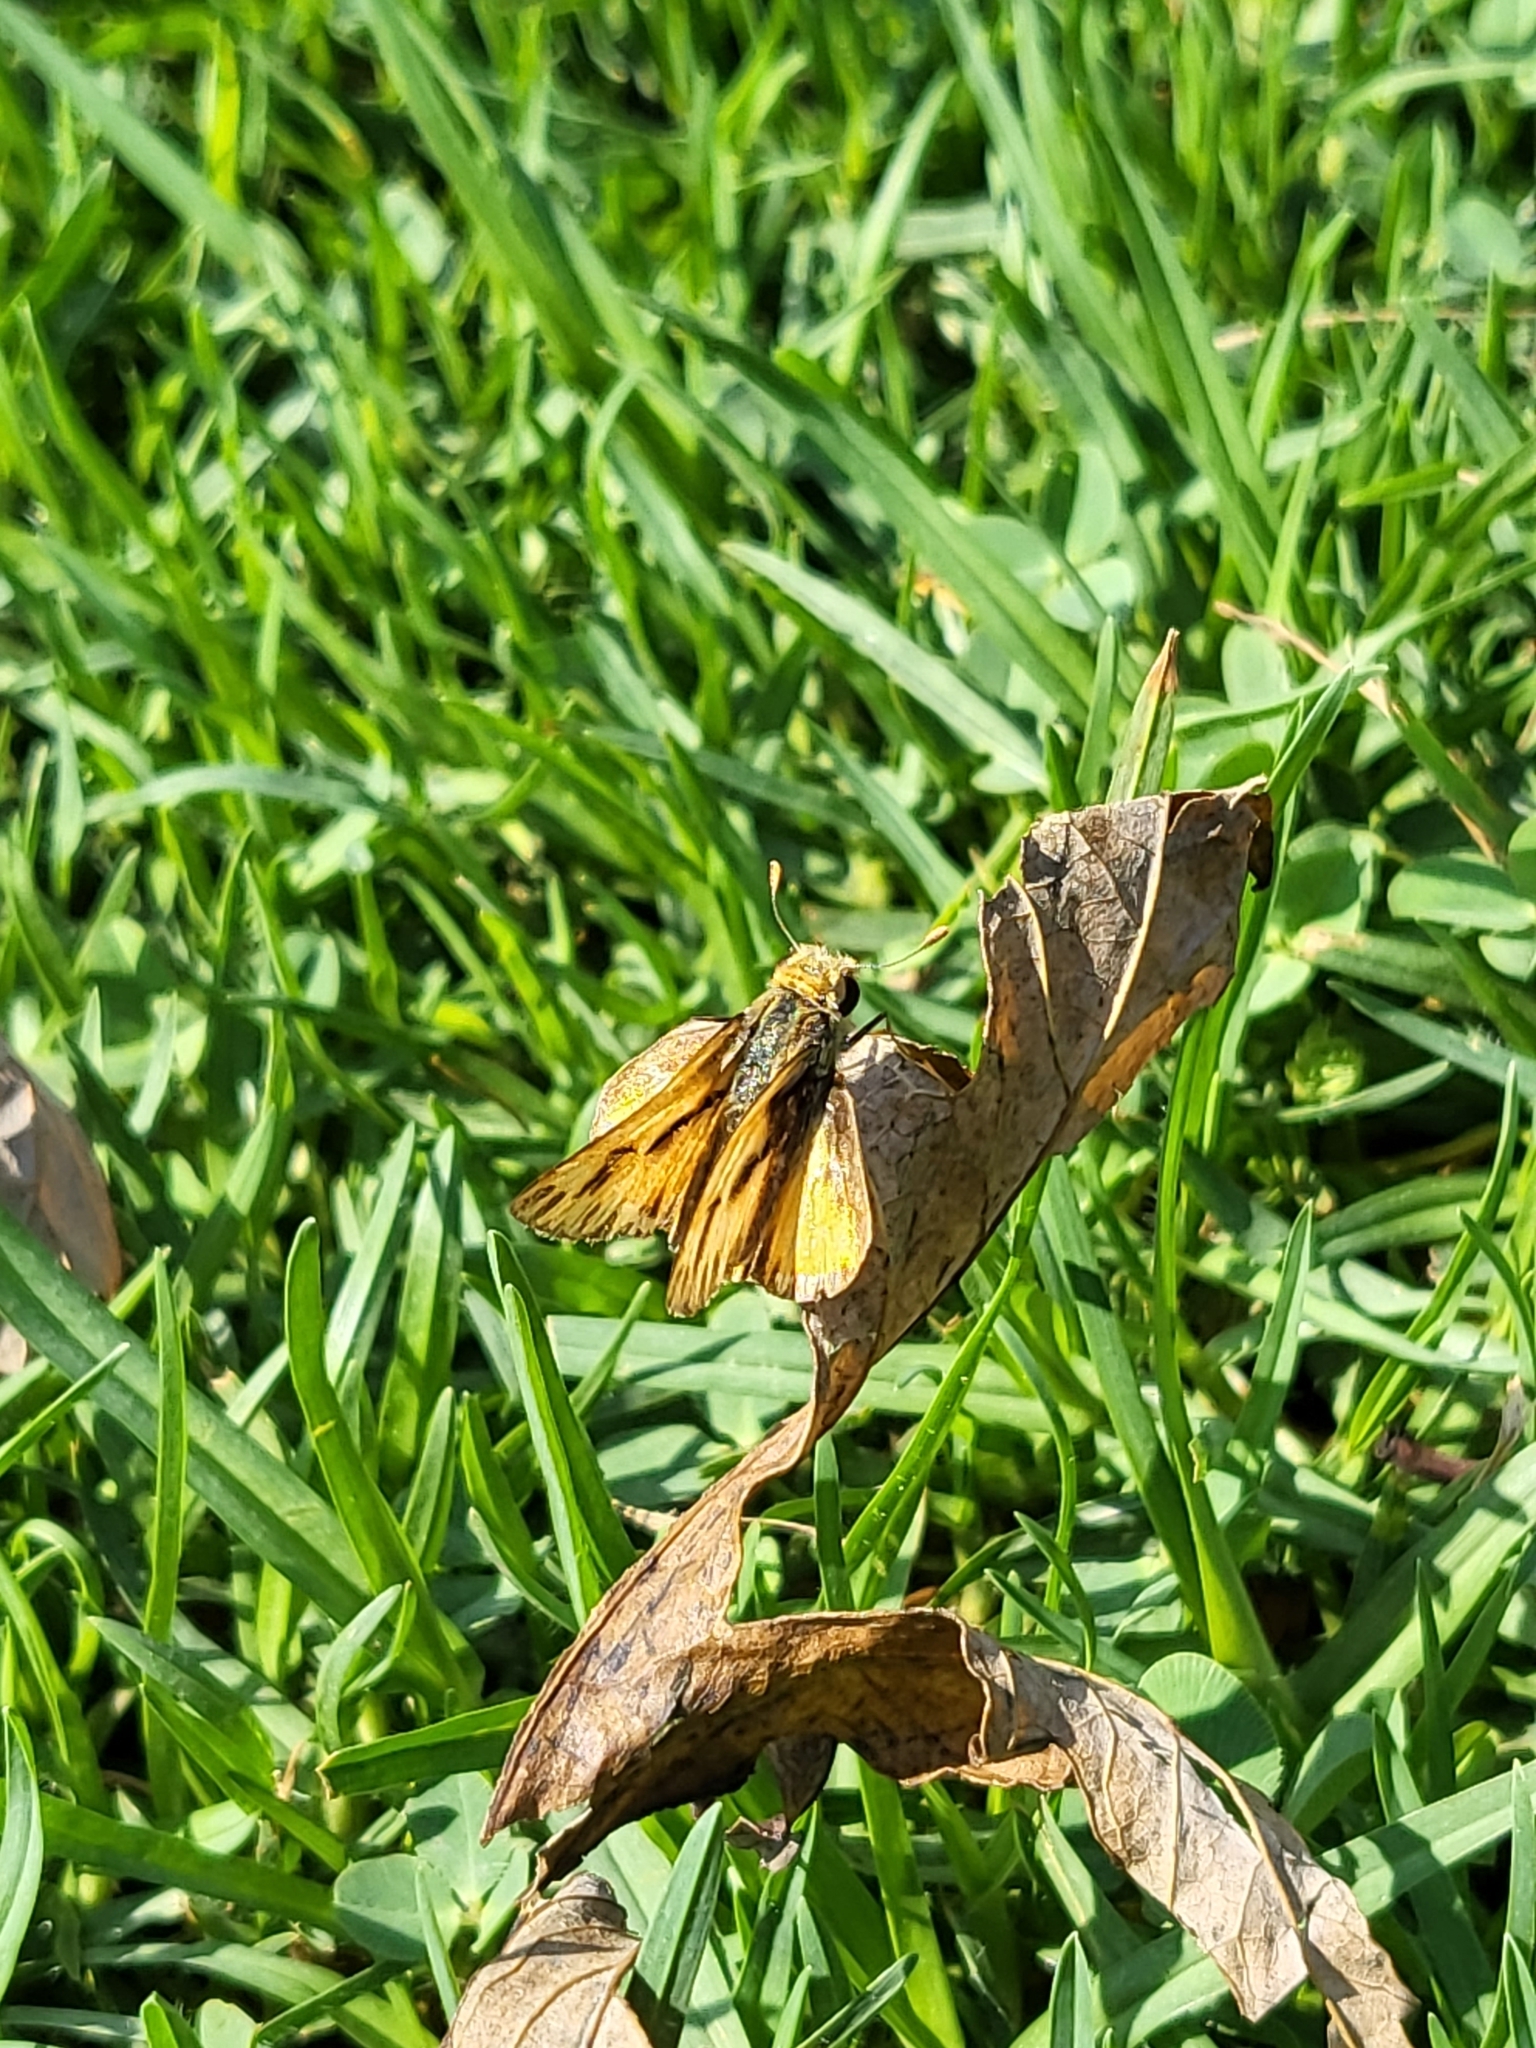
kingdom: Animalia
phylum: Arthropoda
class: Insecta
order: Lepidoptera
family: Hesperiidae
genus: Hylephila
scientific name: Hylephila phyleus
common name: Fiery skipper
